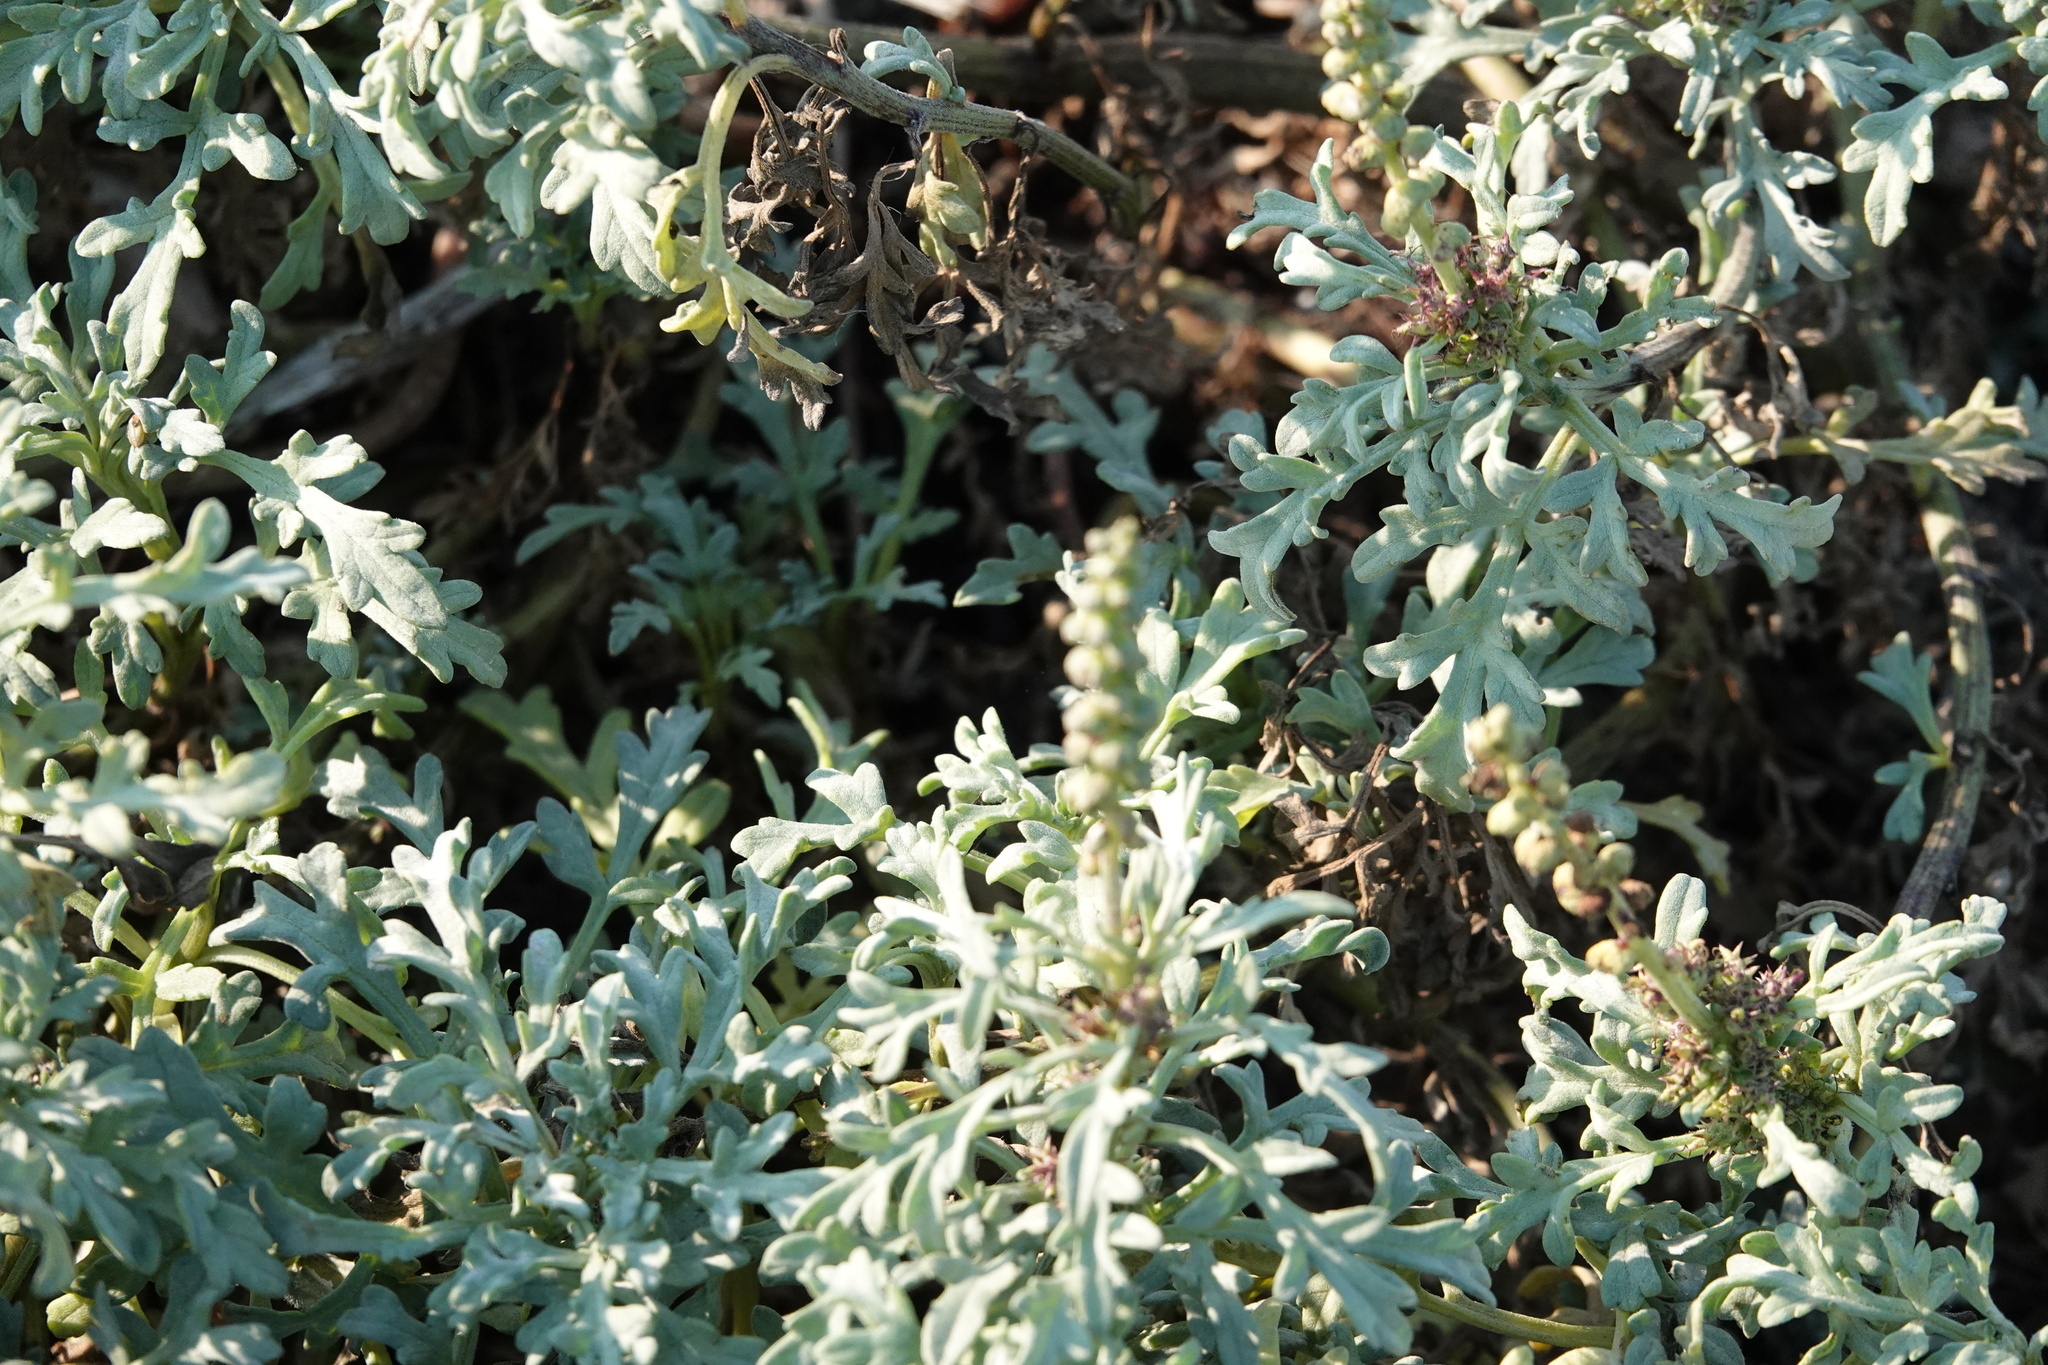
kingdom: Plantae
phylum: Tracheophyta
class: Magnoliopsida
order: Asterales
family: Asteraceae
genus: Ambrosia
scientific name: Ambrosia chamissonis
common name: Beachbur
